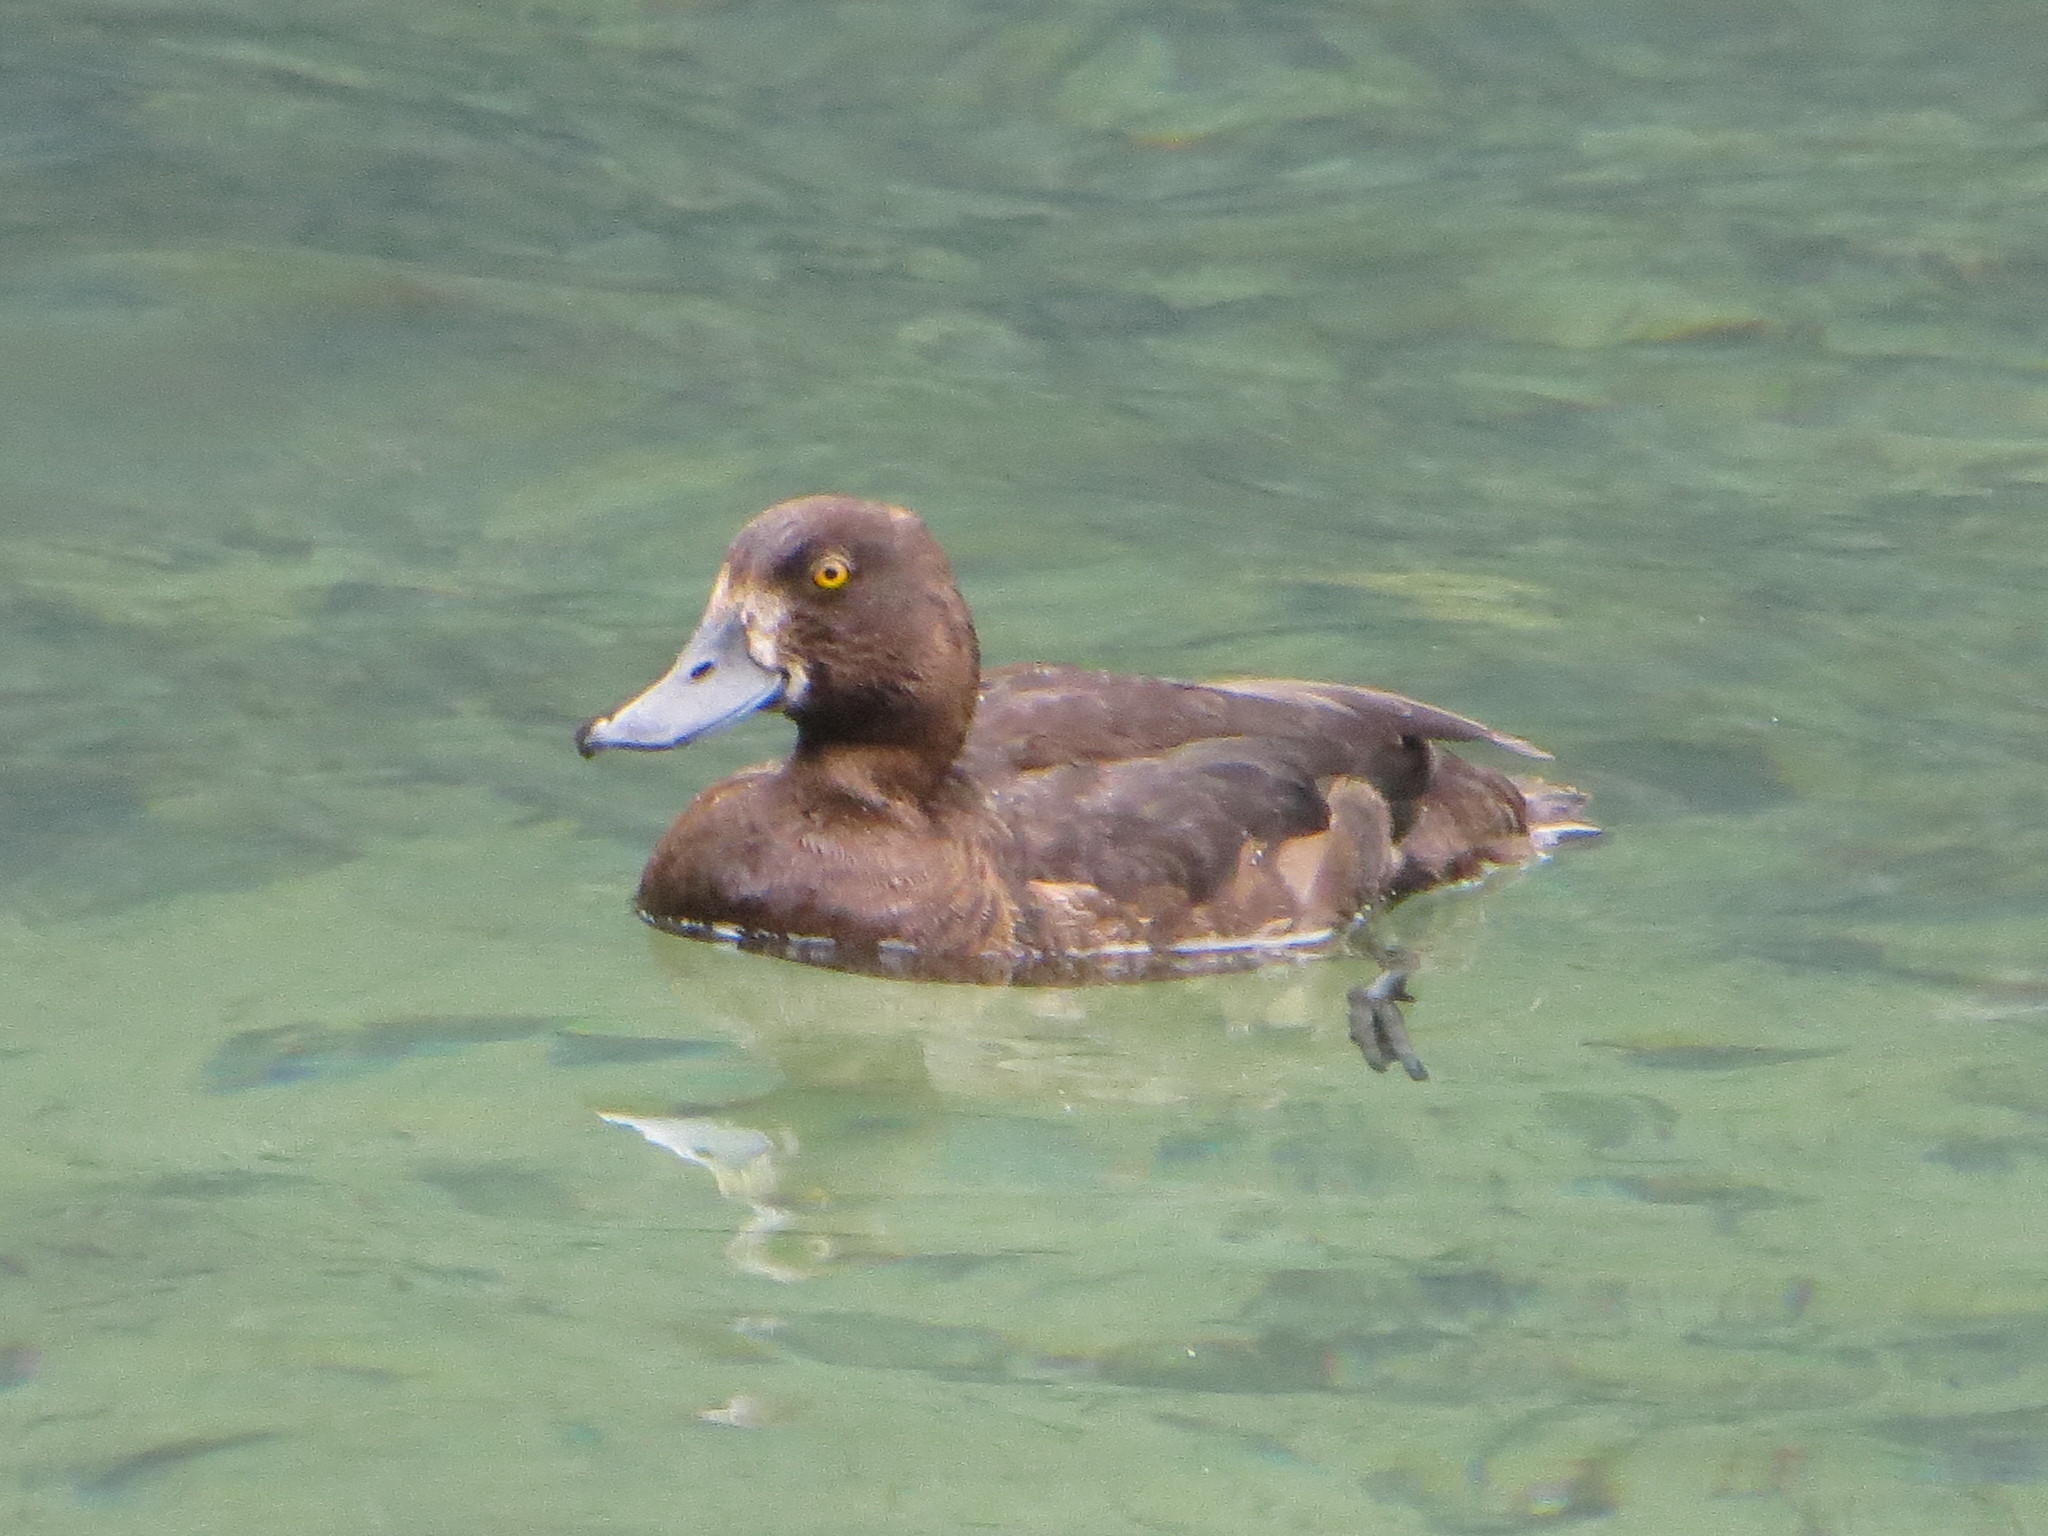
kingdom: Animalia
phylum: Chordata
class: Aves
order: Anseriformes
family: Anatidae
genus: Aythya
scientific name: Aythya fuligula
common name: Tufted duck
